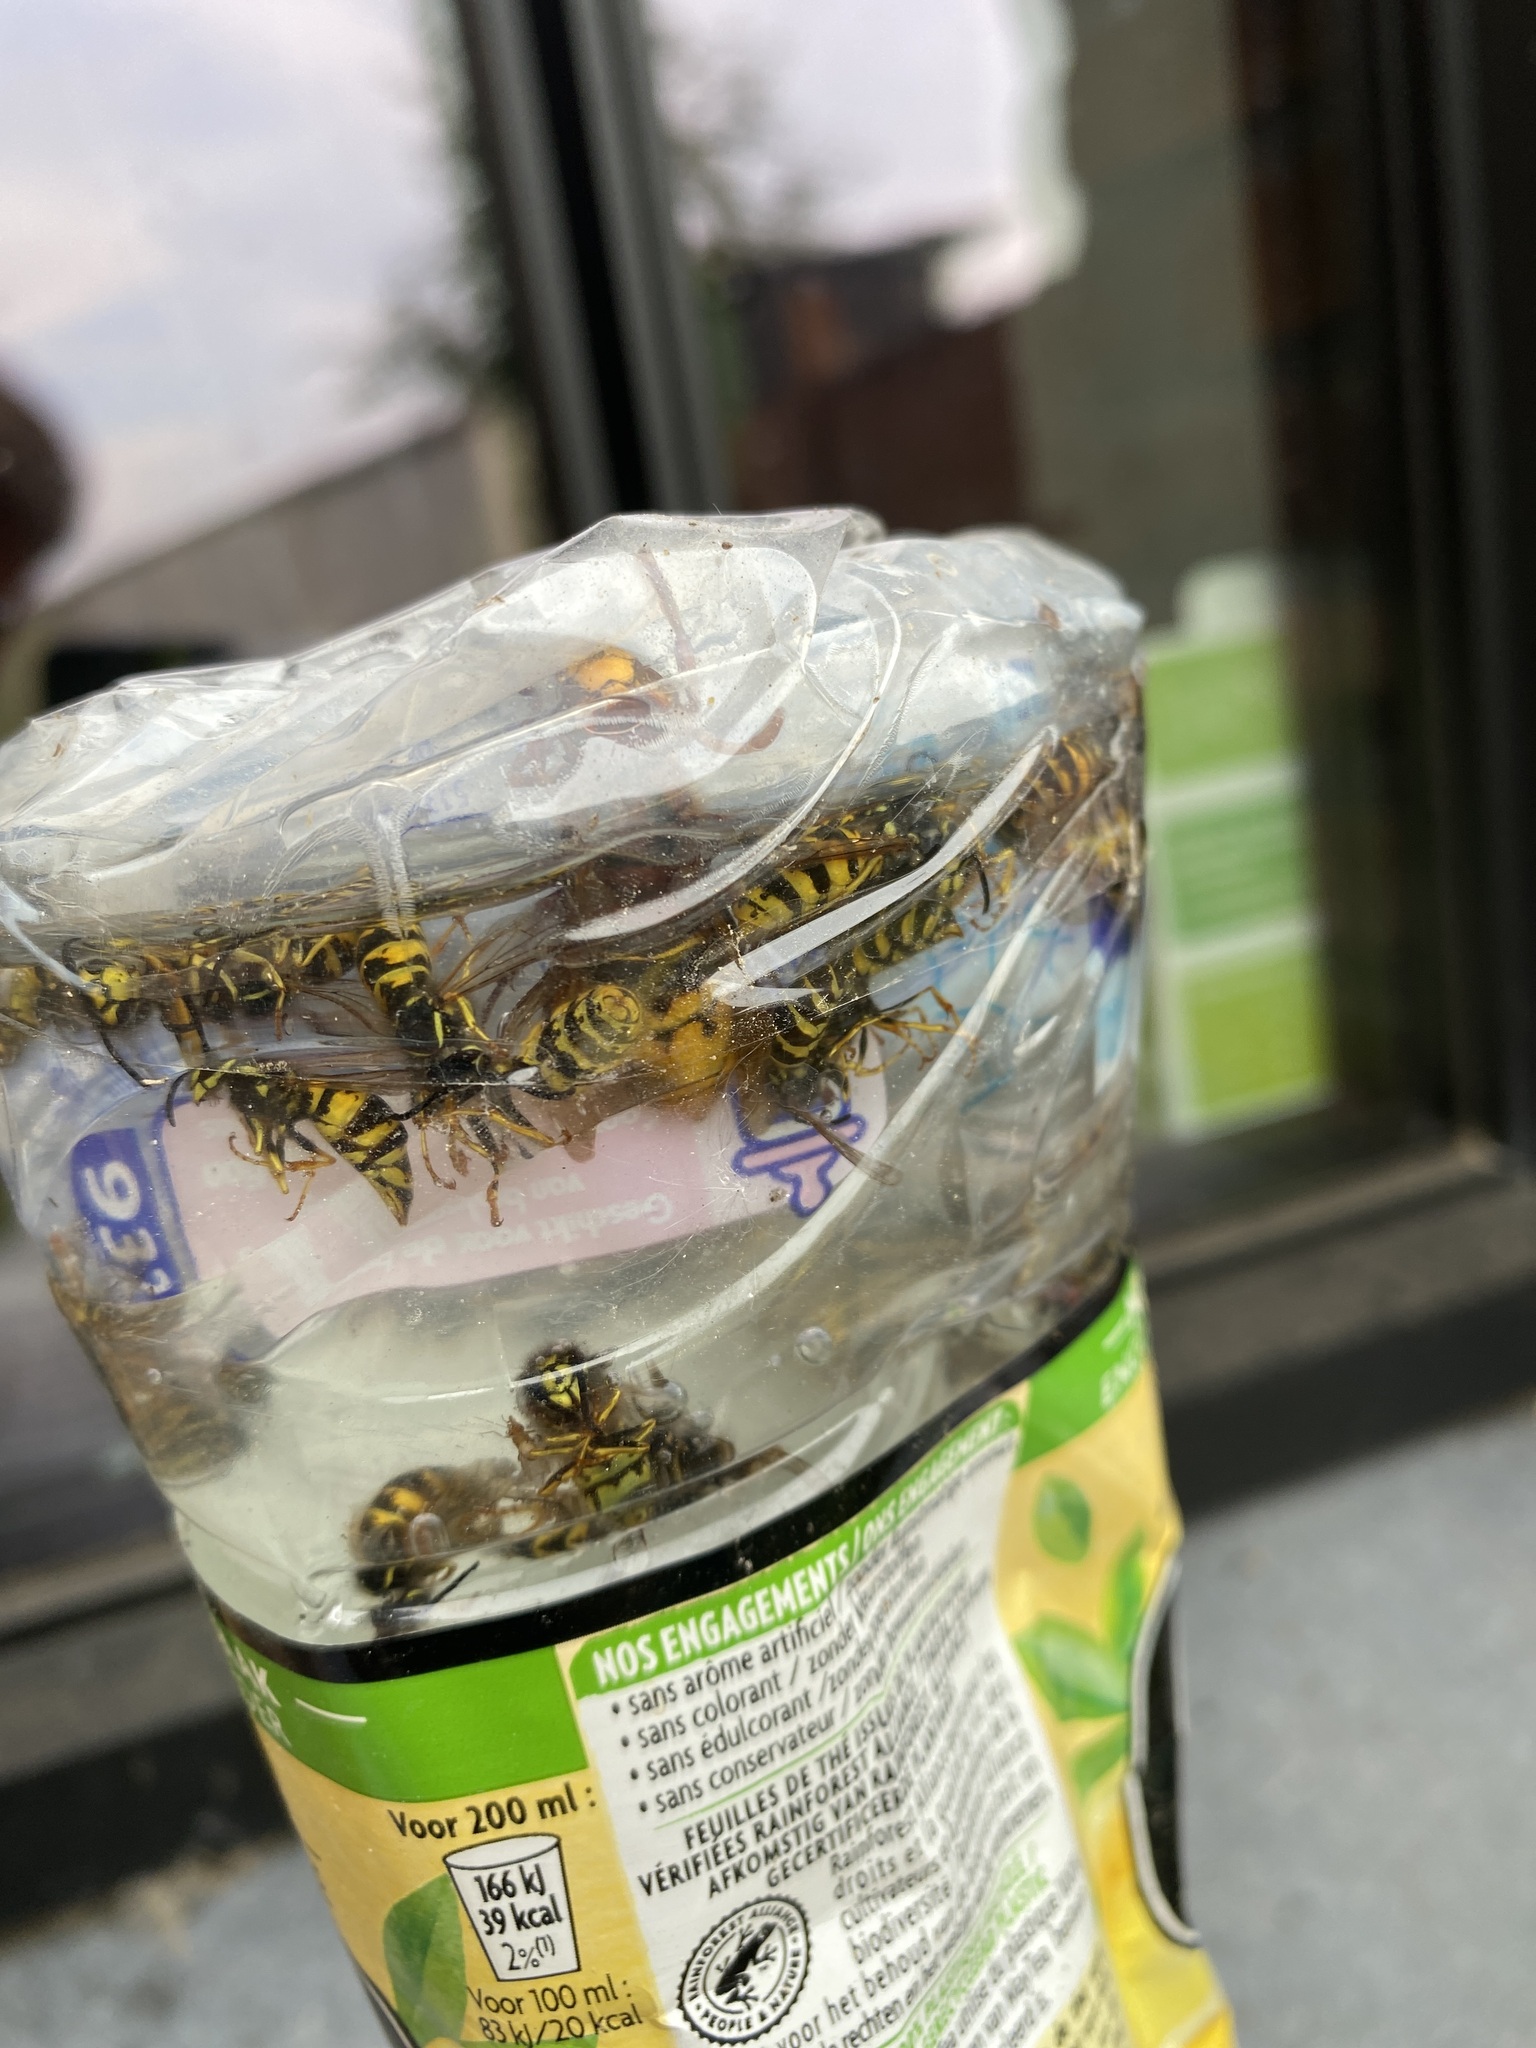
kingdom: Animalia
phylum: Arthropoda
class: Insecta
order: Hymenoptera
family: Vespidae
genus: Vespa
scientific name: Vespa crabro
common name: Hornet
